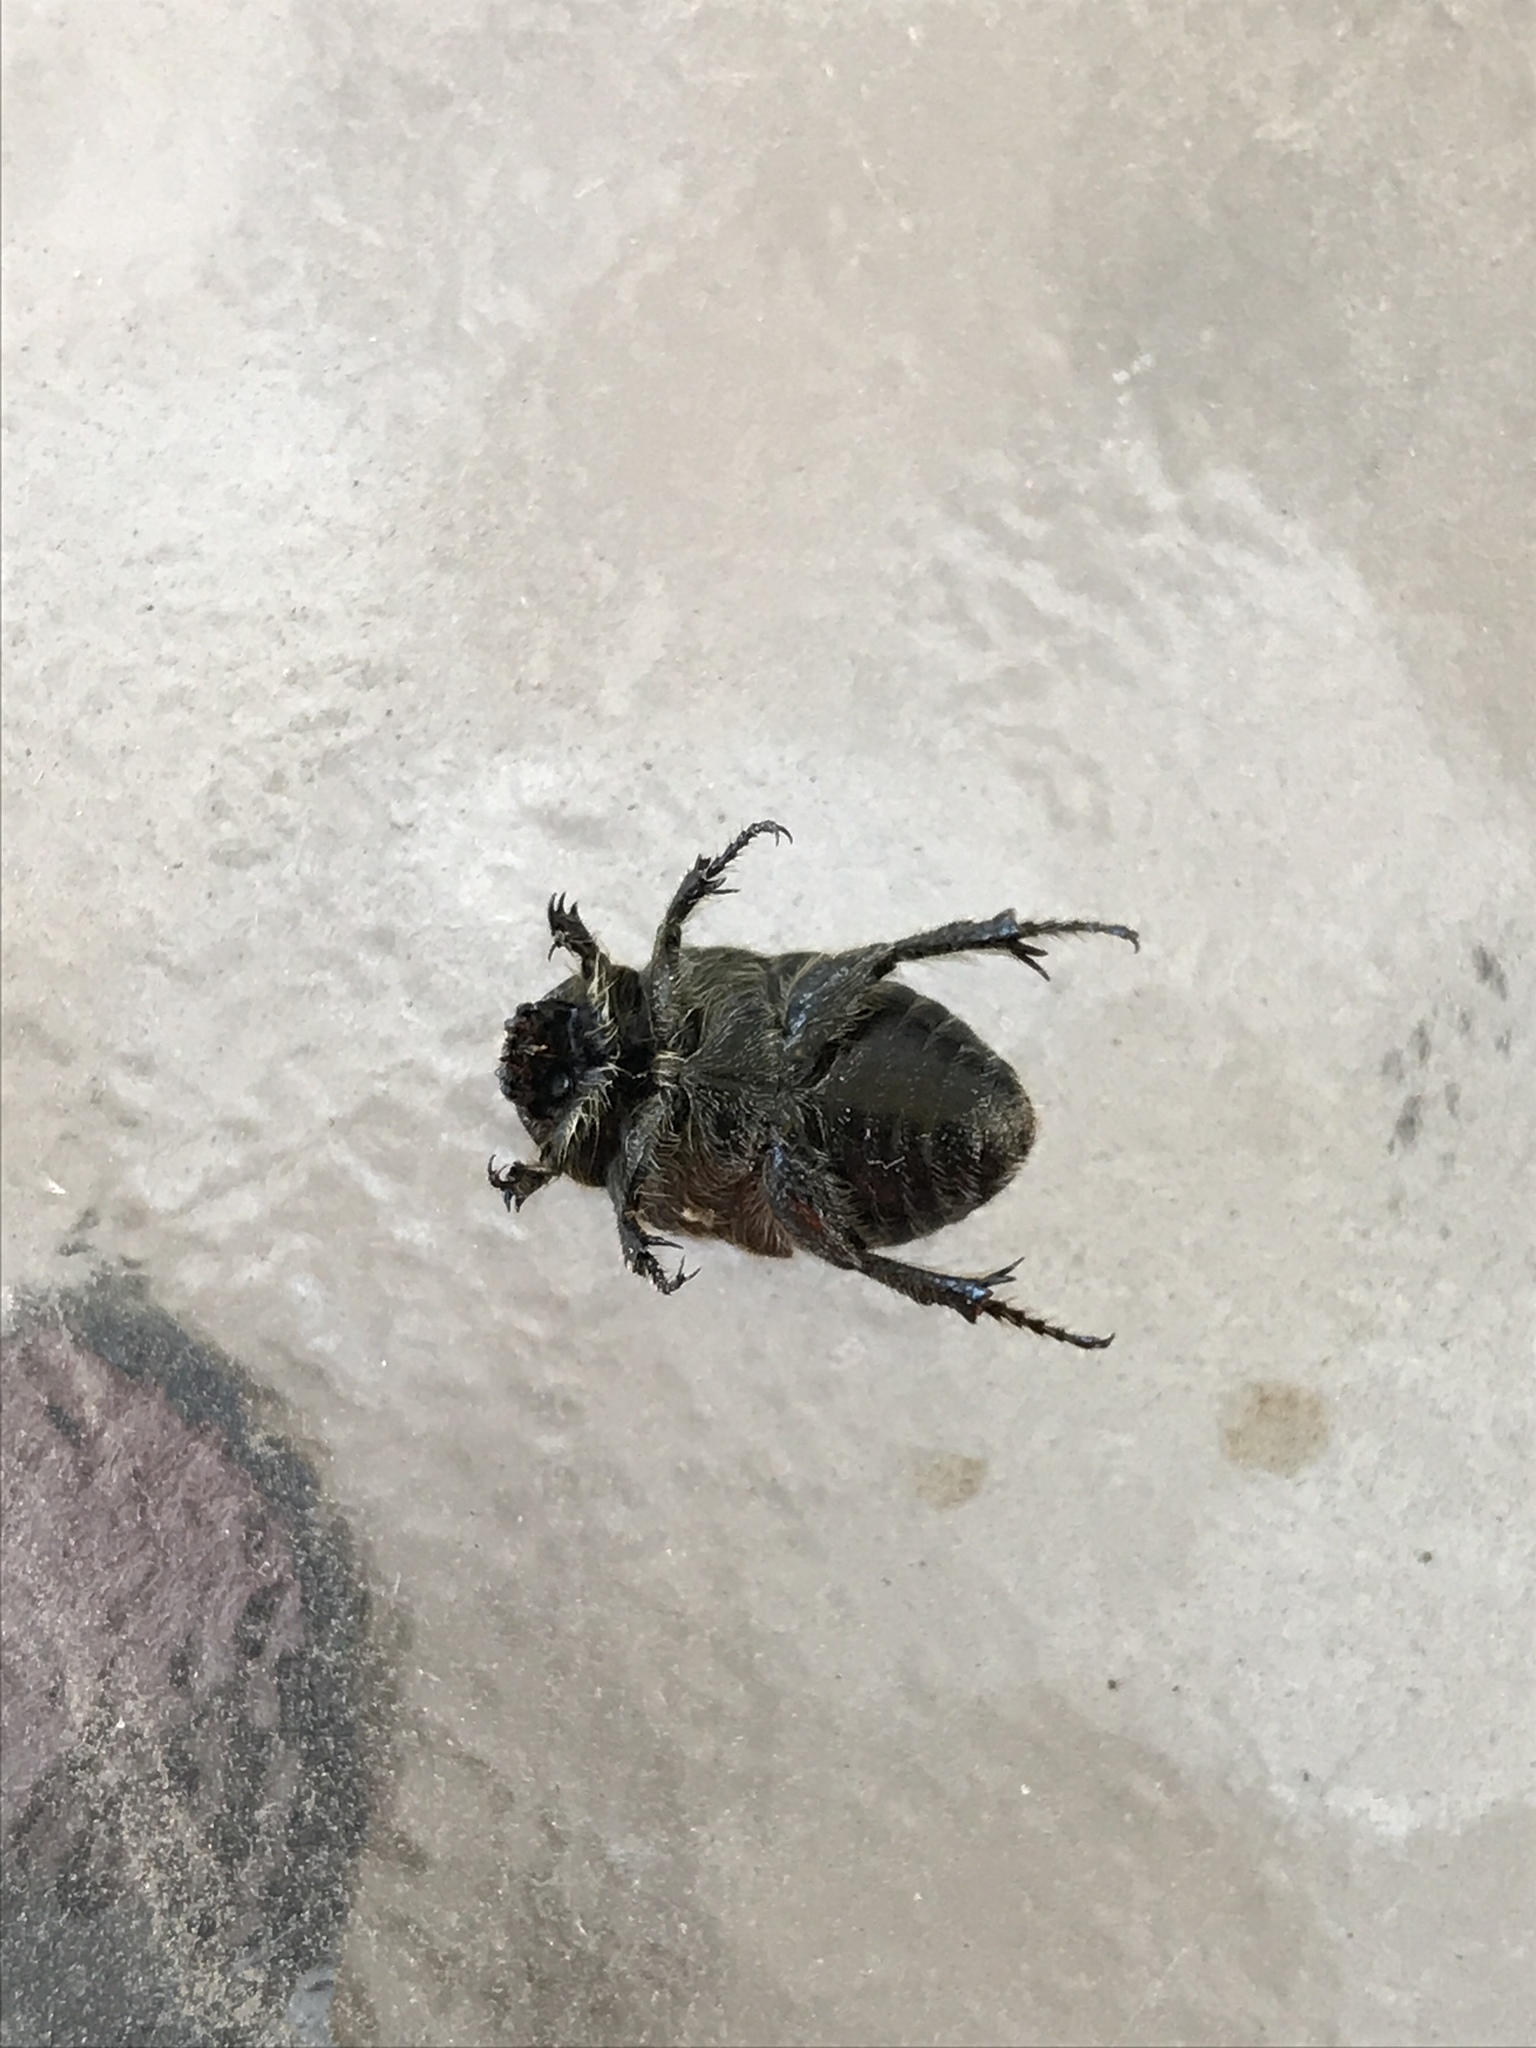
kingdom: Animalia
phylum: Arthropoda
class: Insecta
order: Coleoptera
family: Scarabaeidae
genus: Euphoria
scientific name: Euphoria pilipennis
